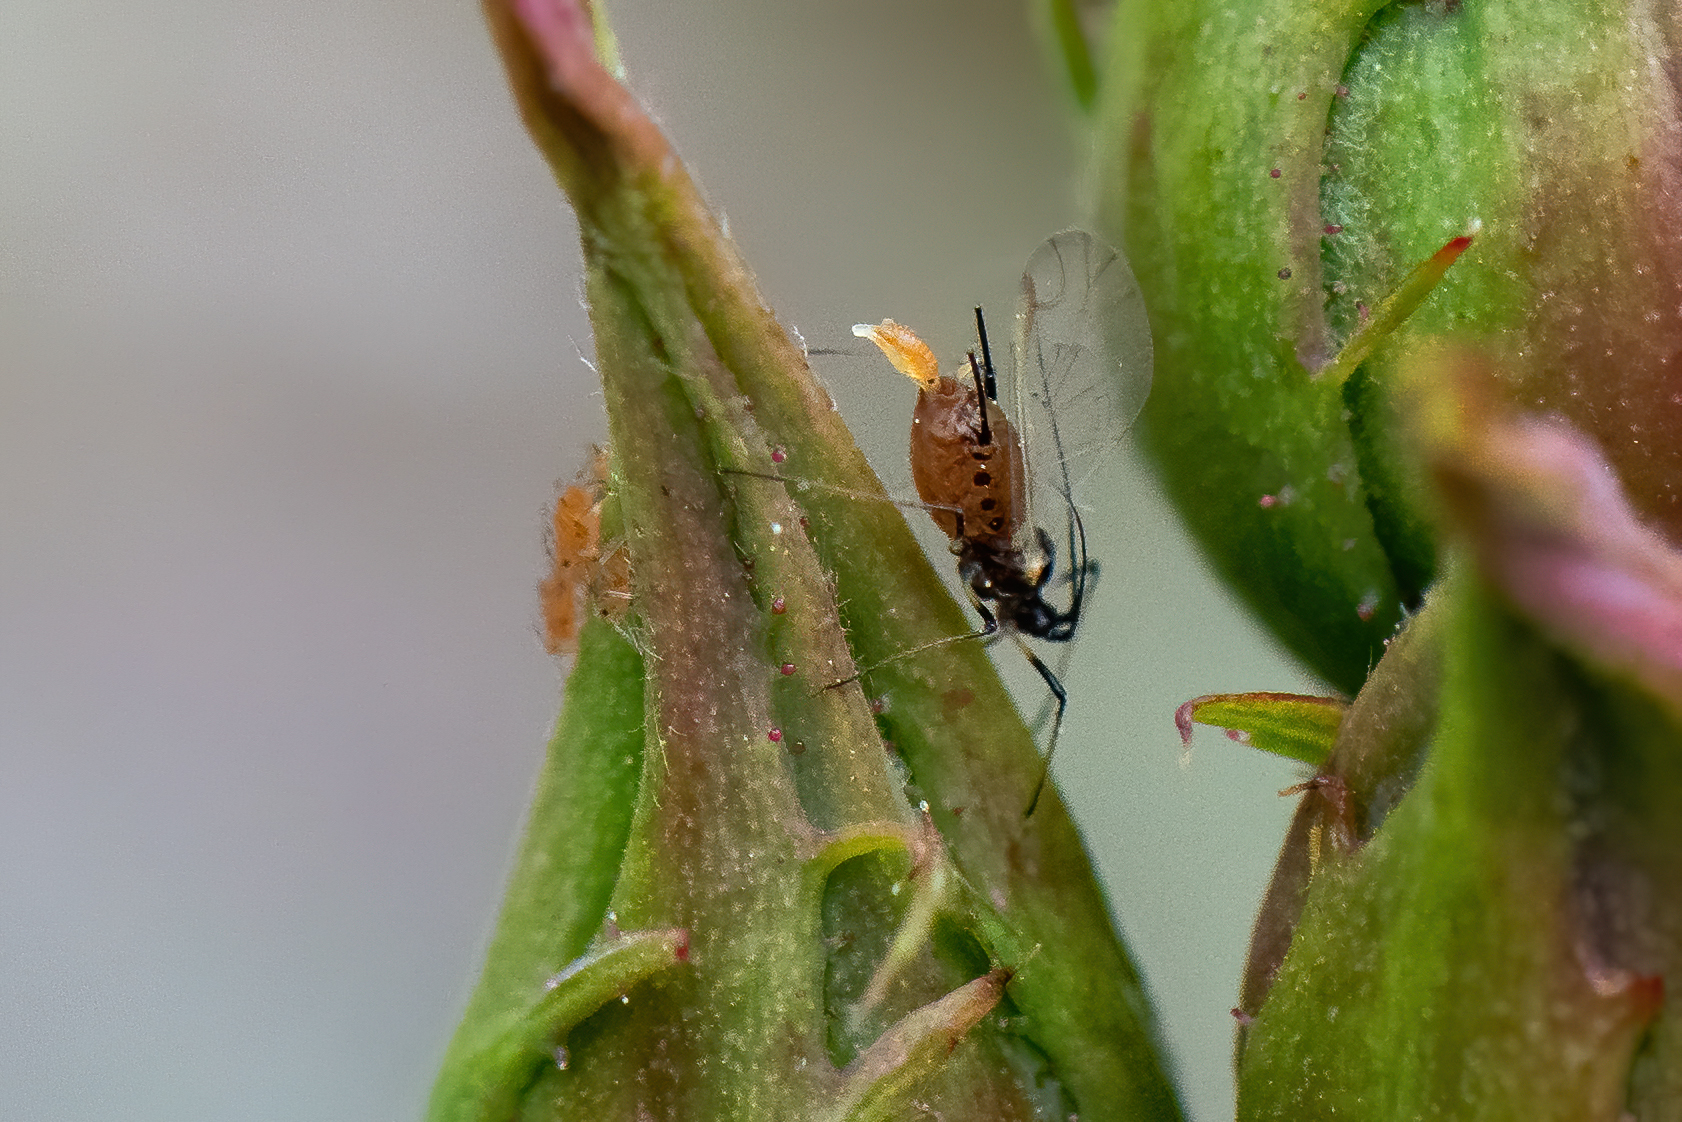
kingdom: Animalia
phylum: Arthropoda
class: Insecta
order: Hemiptera
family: Aphididae
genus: Macrosiphum
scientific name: Macrosiphum rosae
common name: Rose aphid
